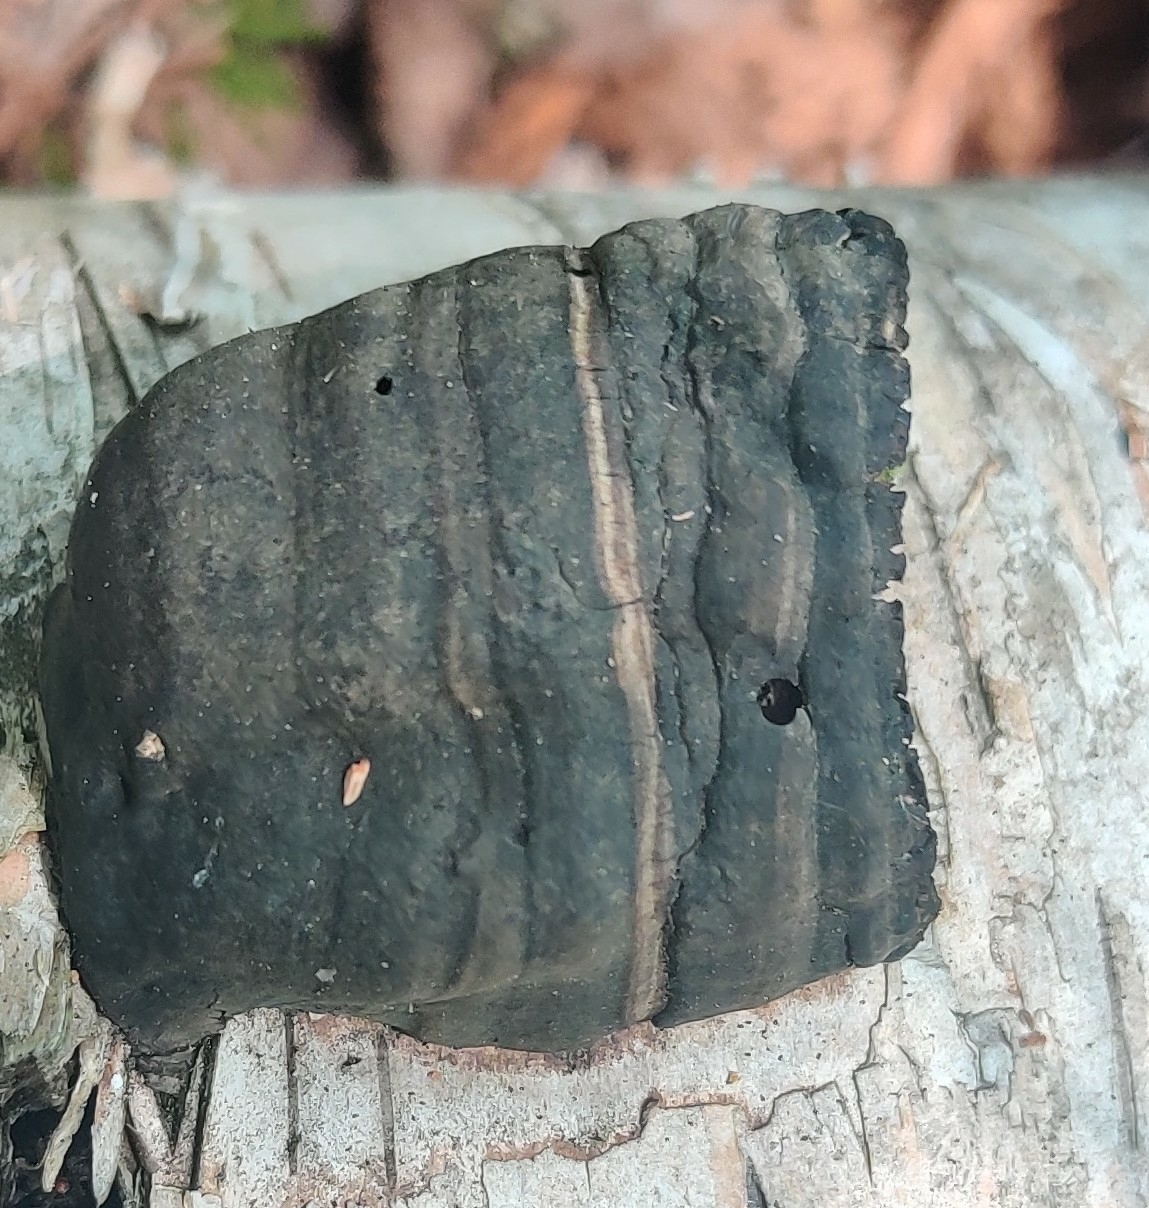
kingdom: Fungi
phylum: Basidiomycota
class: Agaricomycetes
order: Polyporales
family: Polyporaceae
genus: Fomes
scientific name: Fomes fomentarius
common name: Hoof fungus
